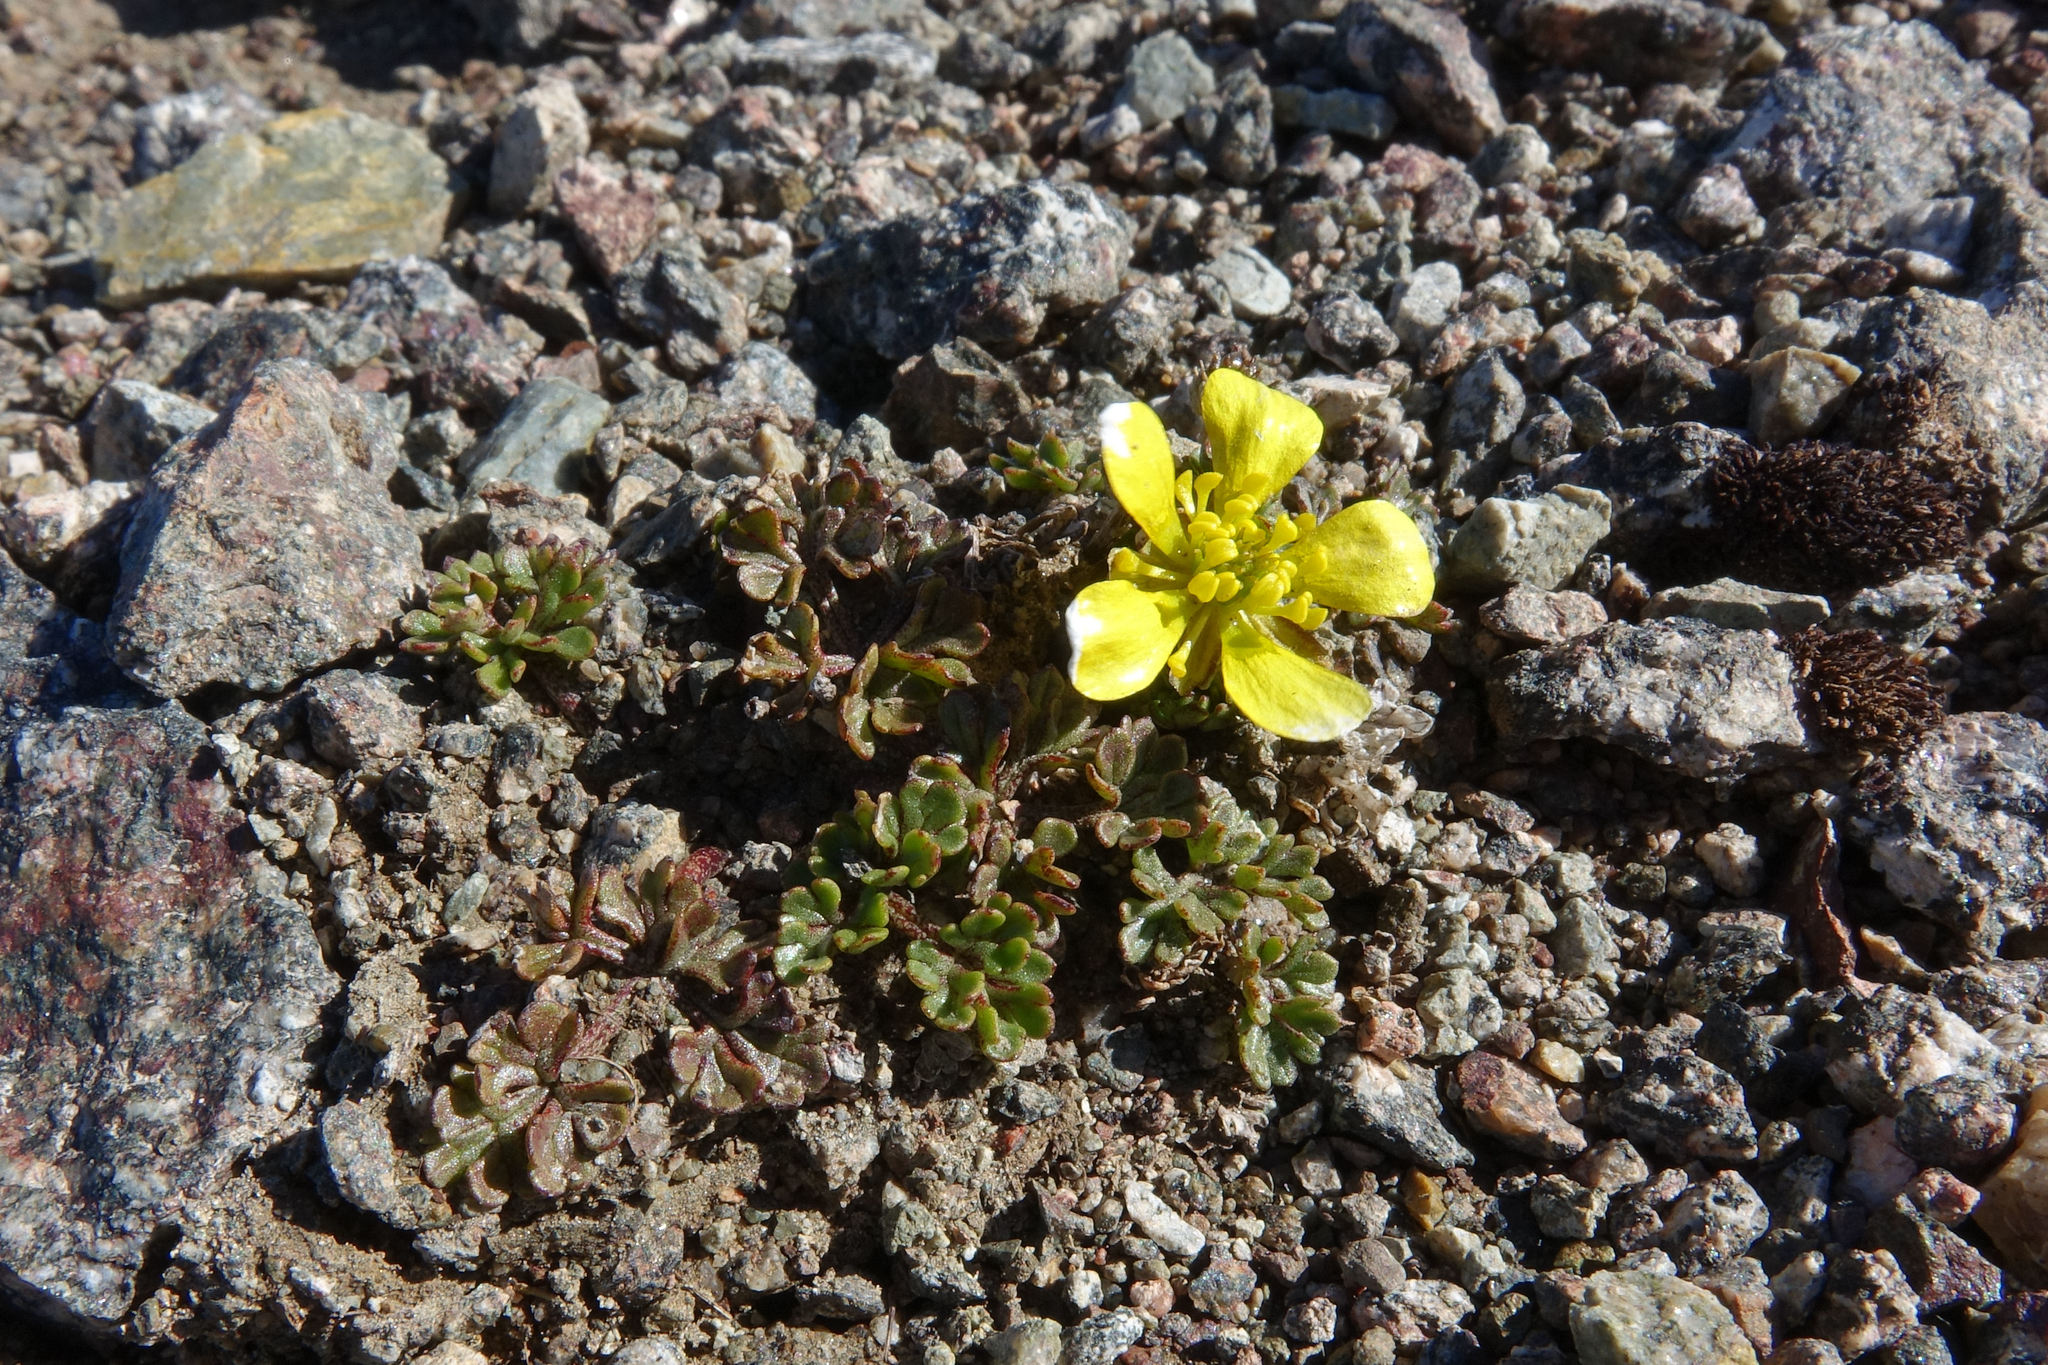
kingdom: Plantae
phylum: Tracheophyta
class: Magnoliopsida
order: Ranunculales
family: Ranunculaceae
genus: Ranunculus
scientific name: Ranunculus enysii
